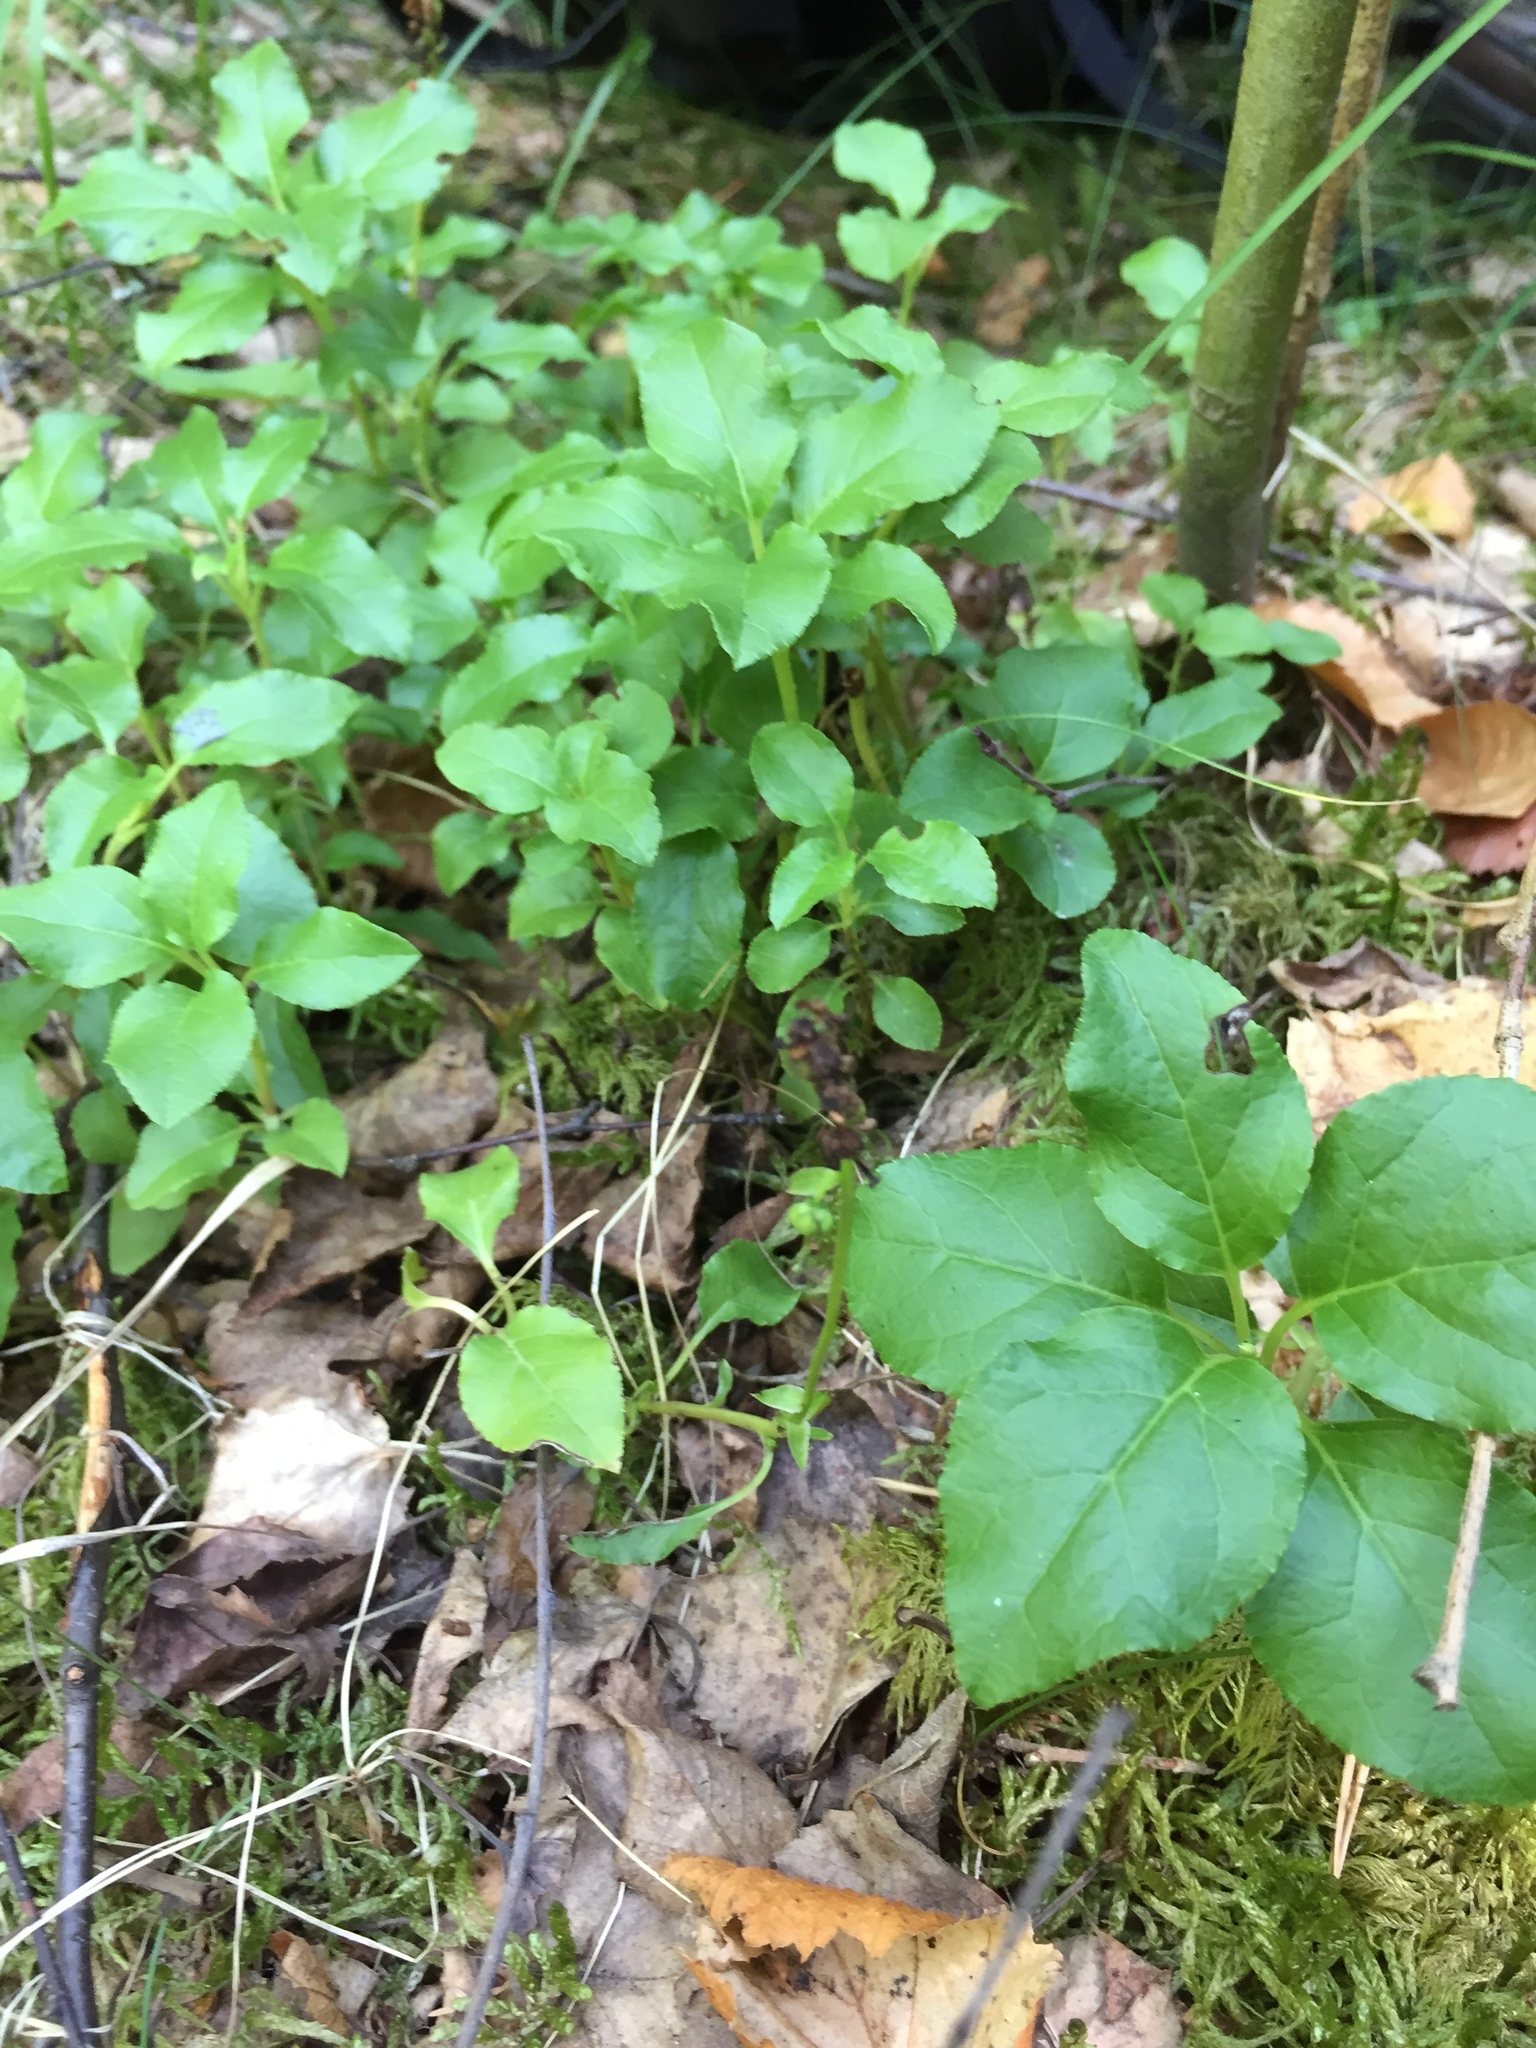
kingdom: Plantae
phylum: Tracheophyta
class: Magnoliopsida
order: Ericales
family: Ericaceae
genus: Orthilia
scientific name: Orthilia secunda
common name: One-sided orthilia
